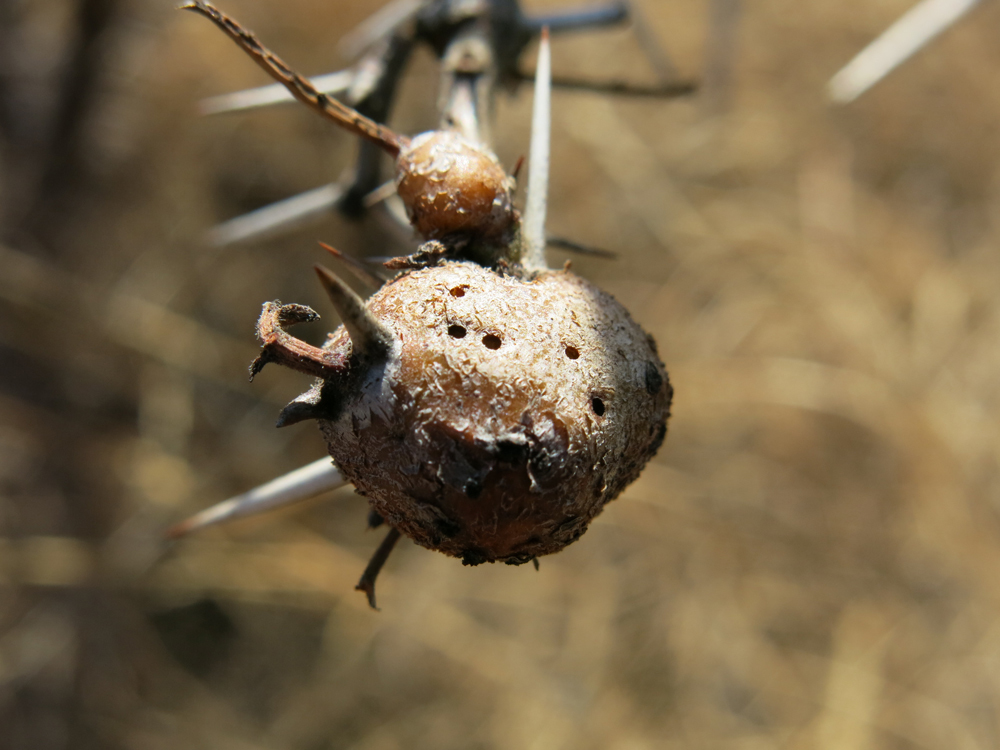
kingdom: Fungi
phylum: Basidiomycota
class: Pucciniomycetes
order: Pucciniales
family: Raveneliaceae
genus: Cephalotelium
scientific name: Cephalotelium macowanianum
